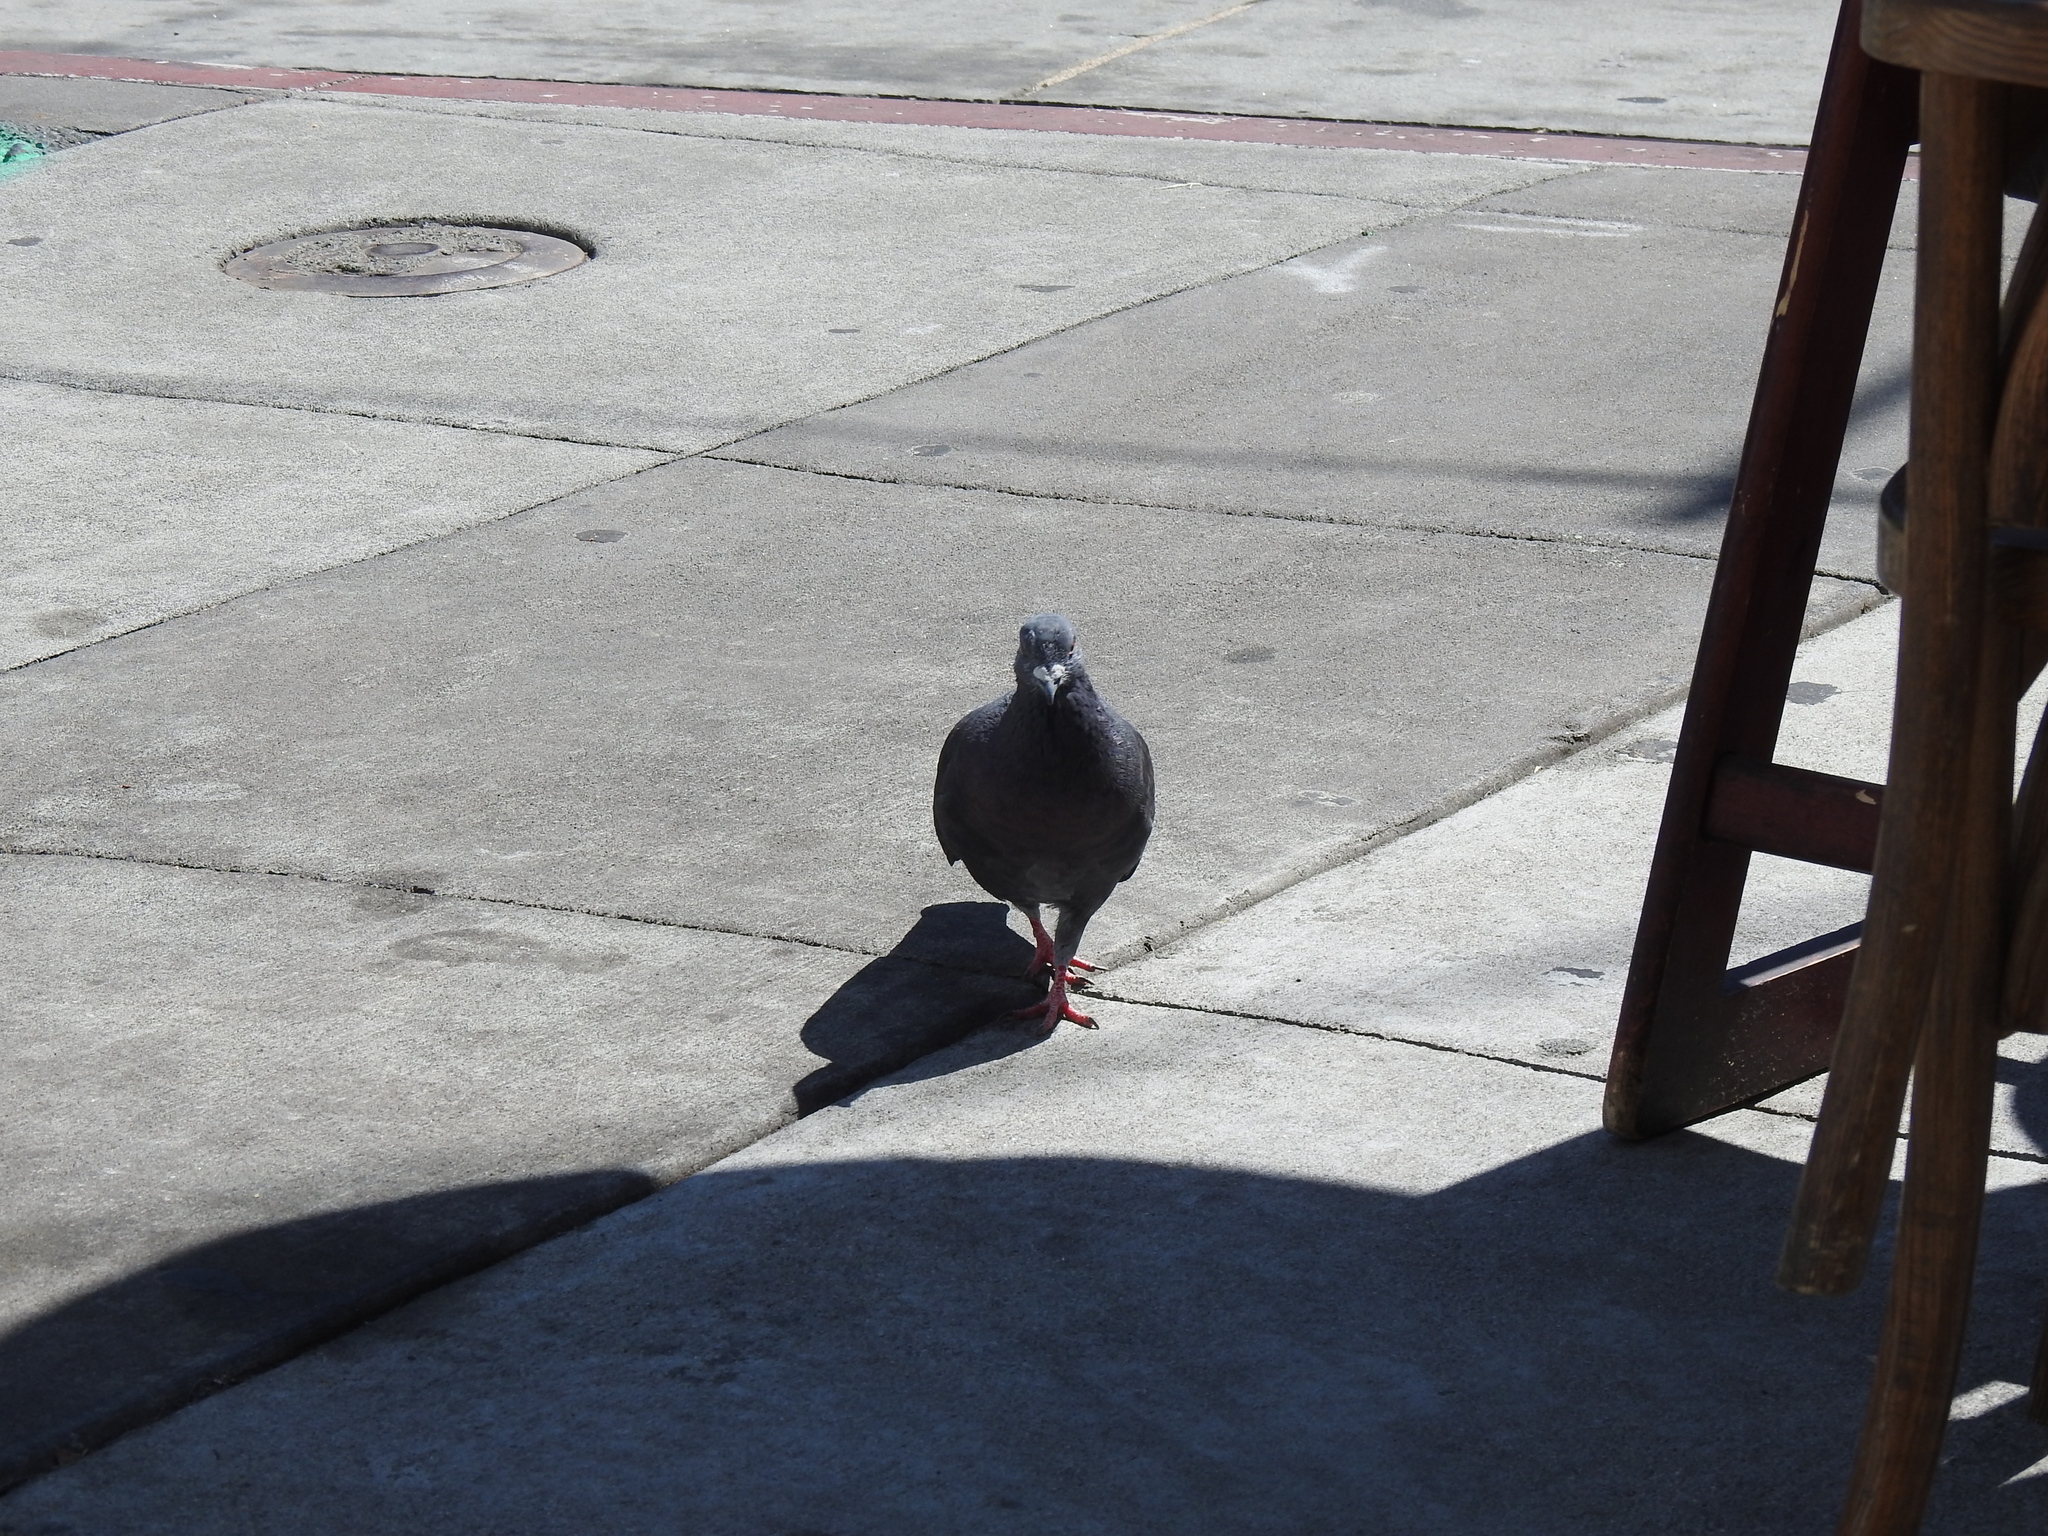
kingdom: Animalia
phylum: Chordata
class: Aves
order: Columbiformes
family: Columbidae
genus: Columba
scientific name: Columba livia
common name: Rock pigeon
